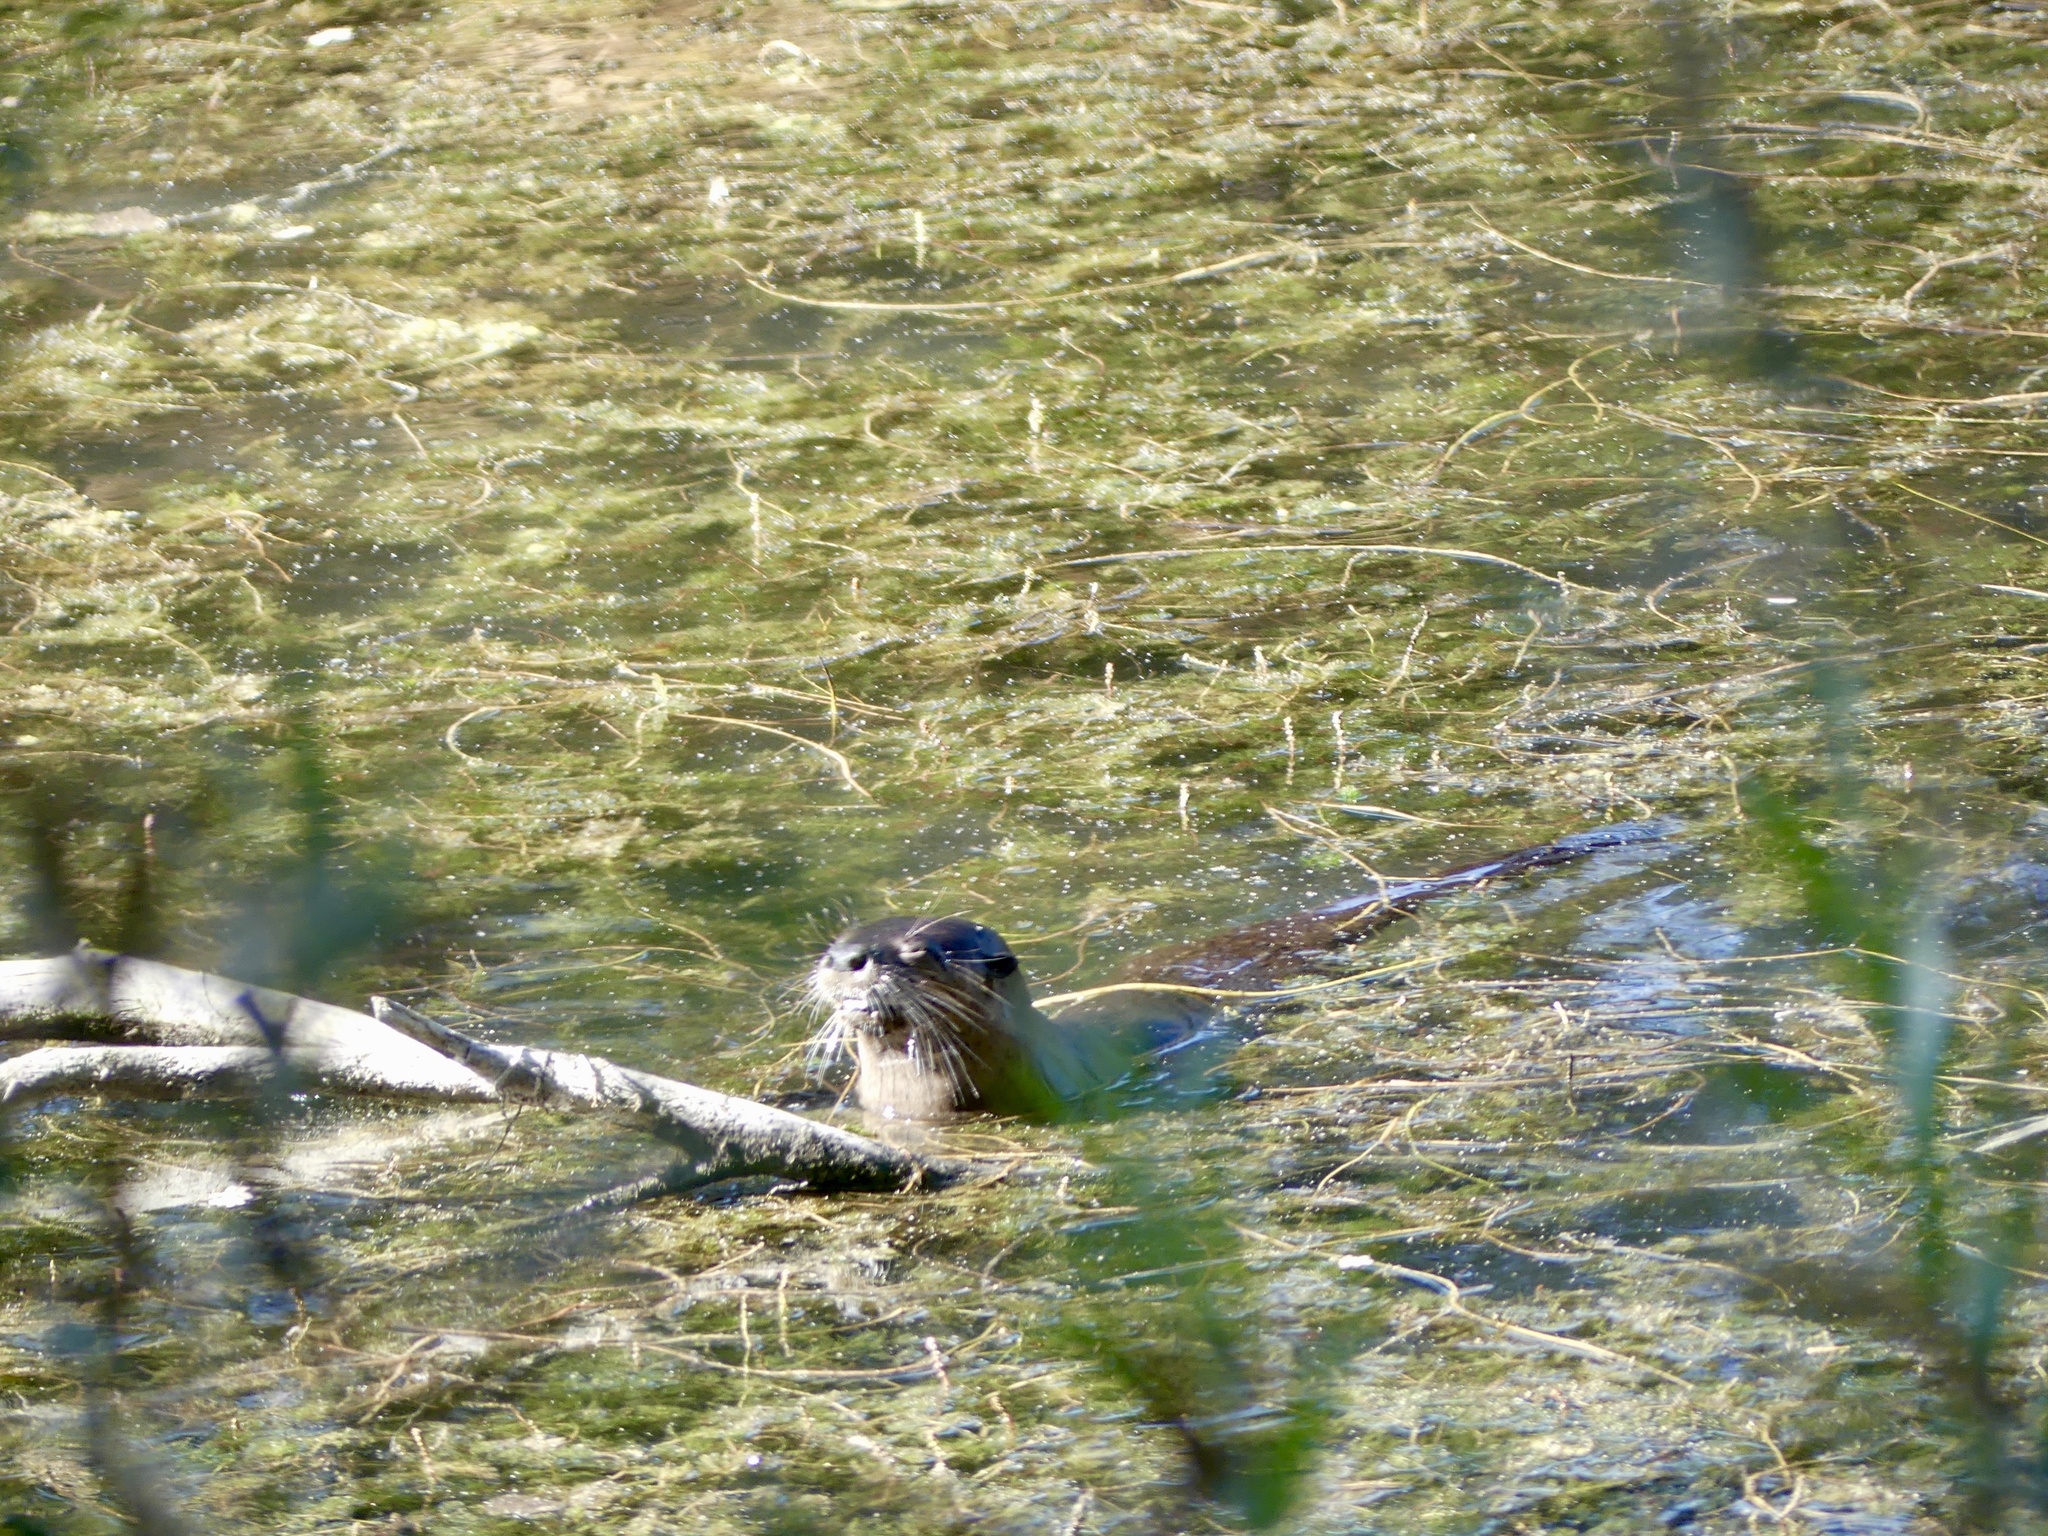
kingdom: Animalia
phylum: Chordata
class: Mammalia
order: Carnivora
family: Mustelidae
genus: Lontra
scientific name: Lontra canadensis
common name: North american river otter
